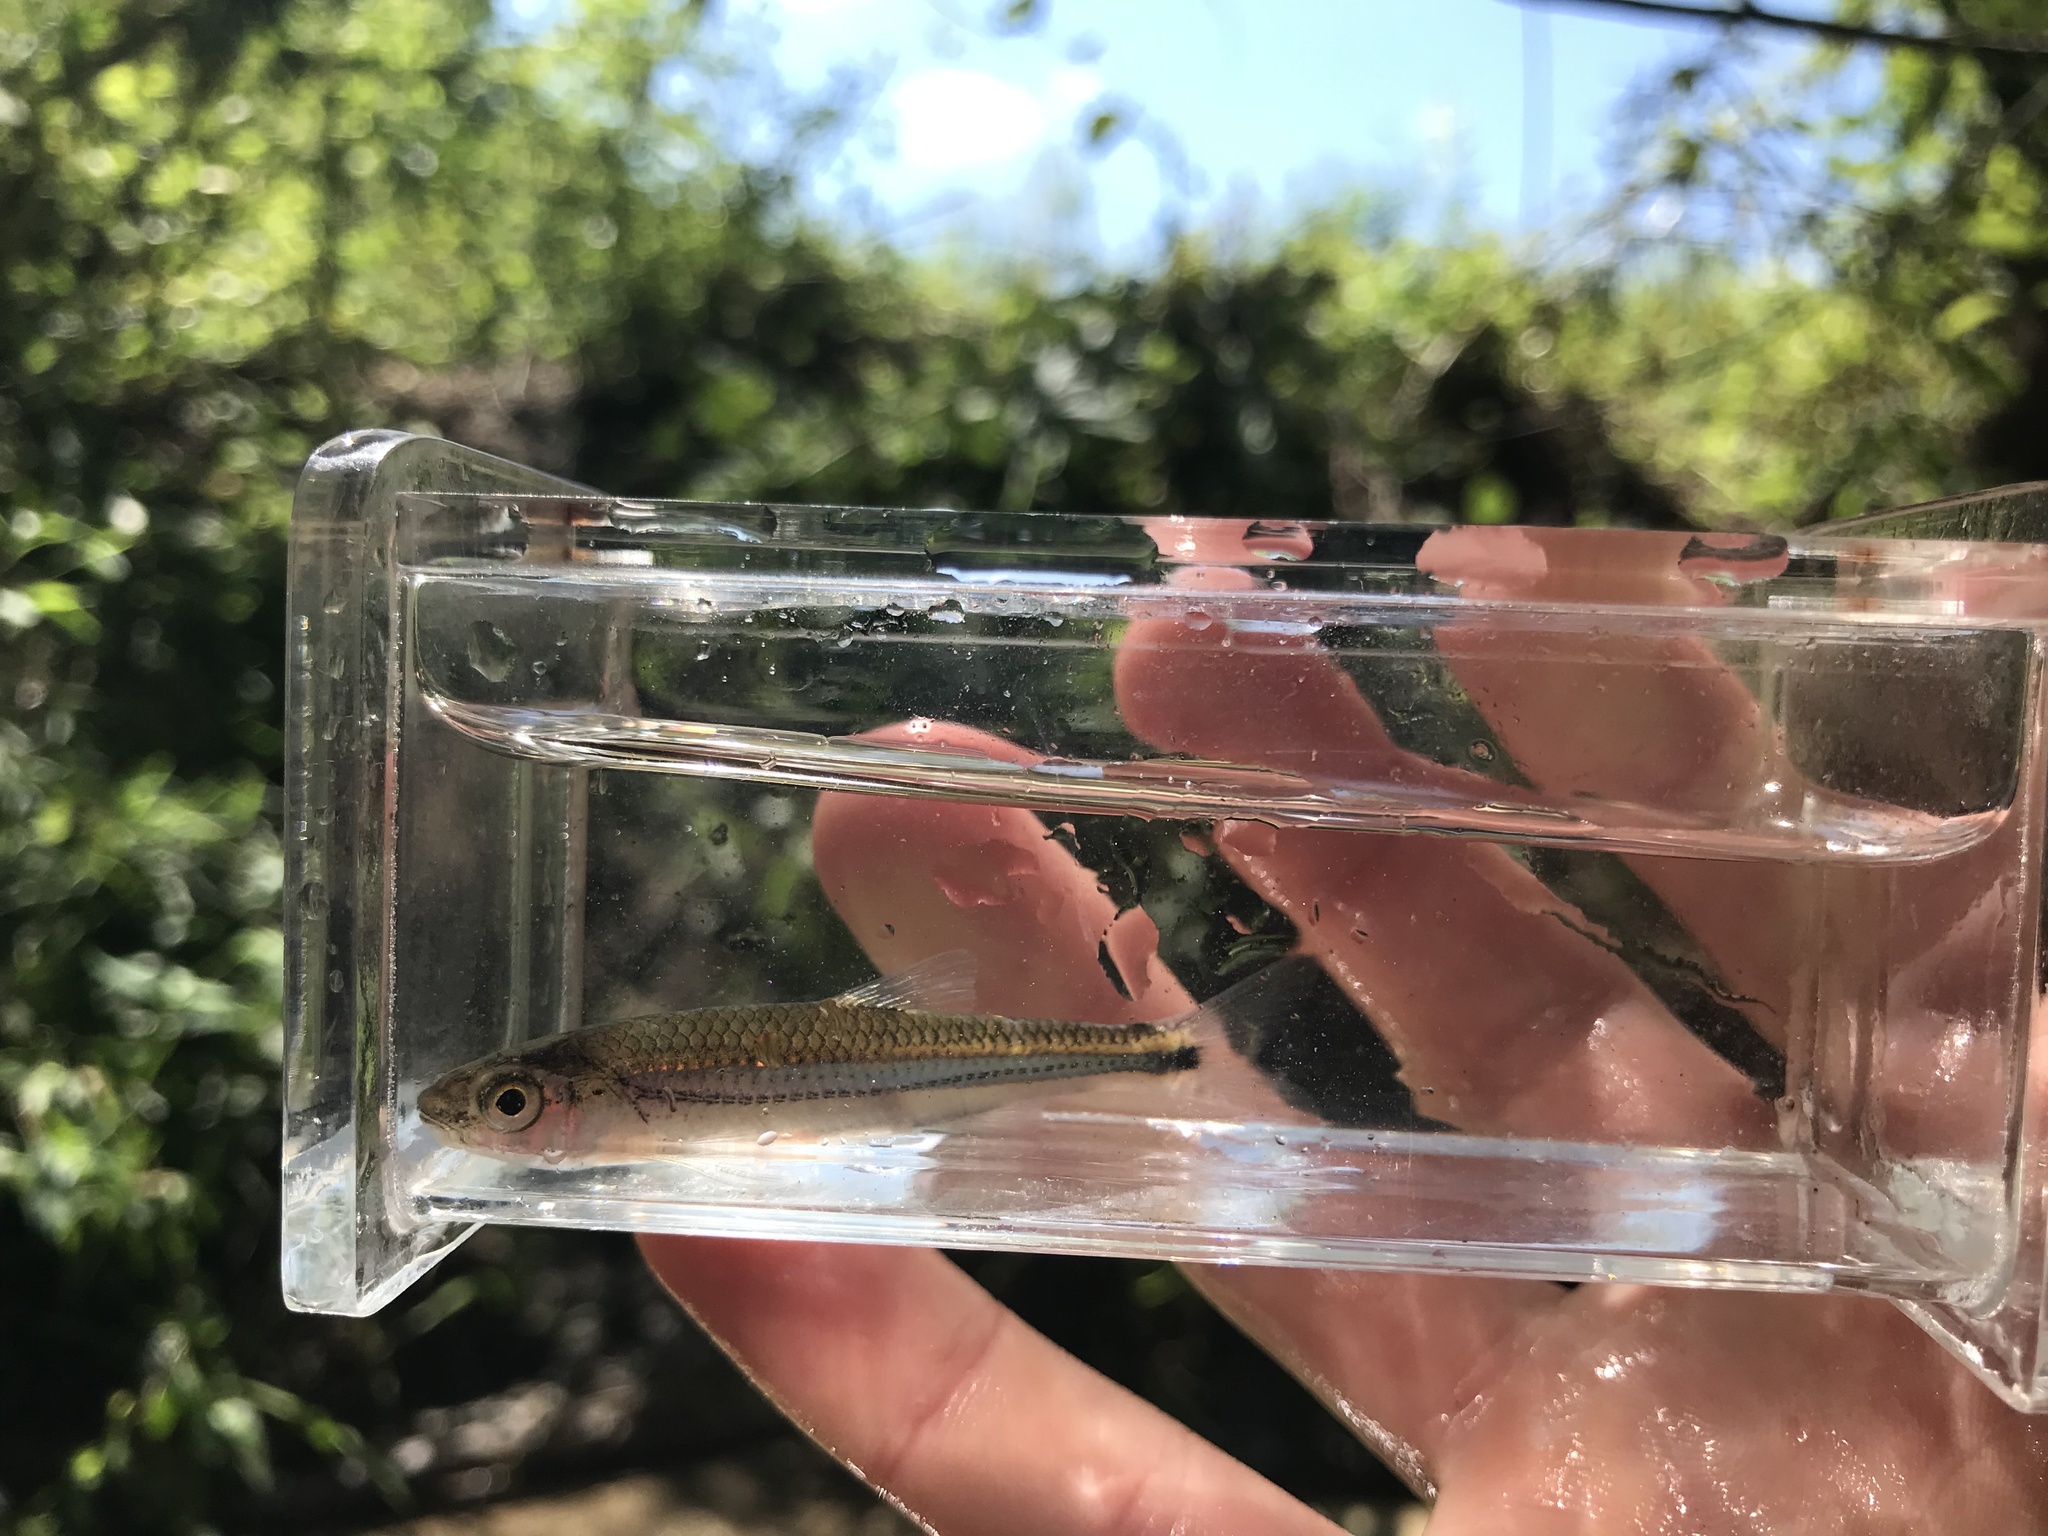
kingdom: Animalia
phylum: Chordata
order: Cypriniformes
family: Cyprinidae
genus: Notropis
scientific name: Notropis
